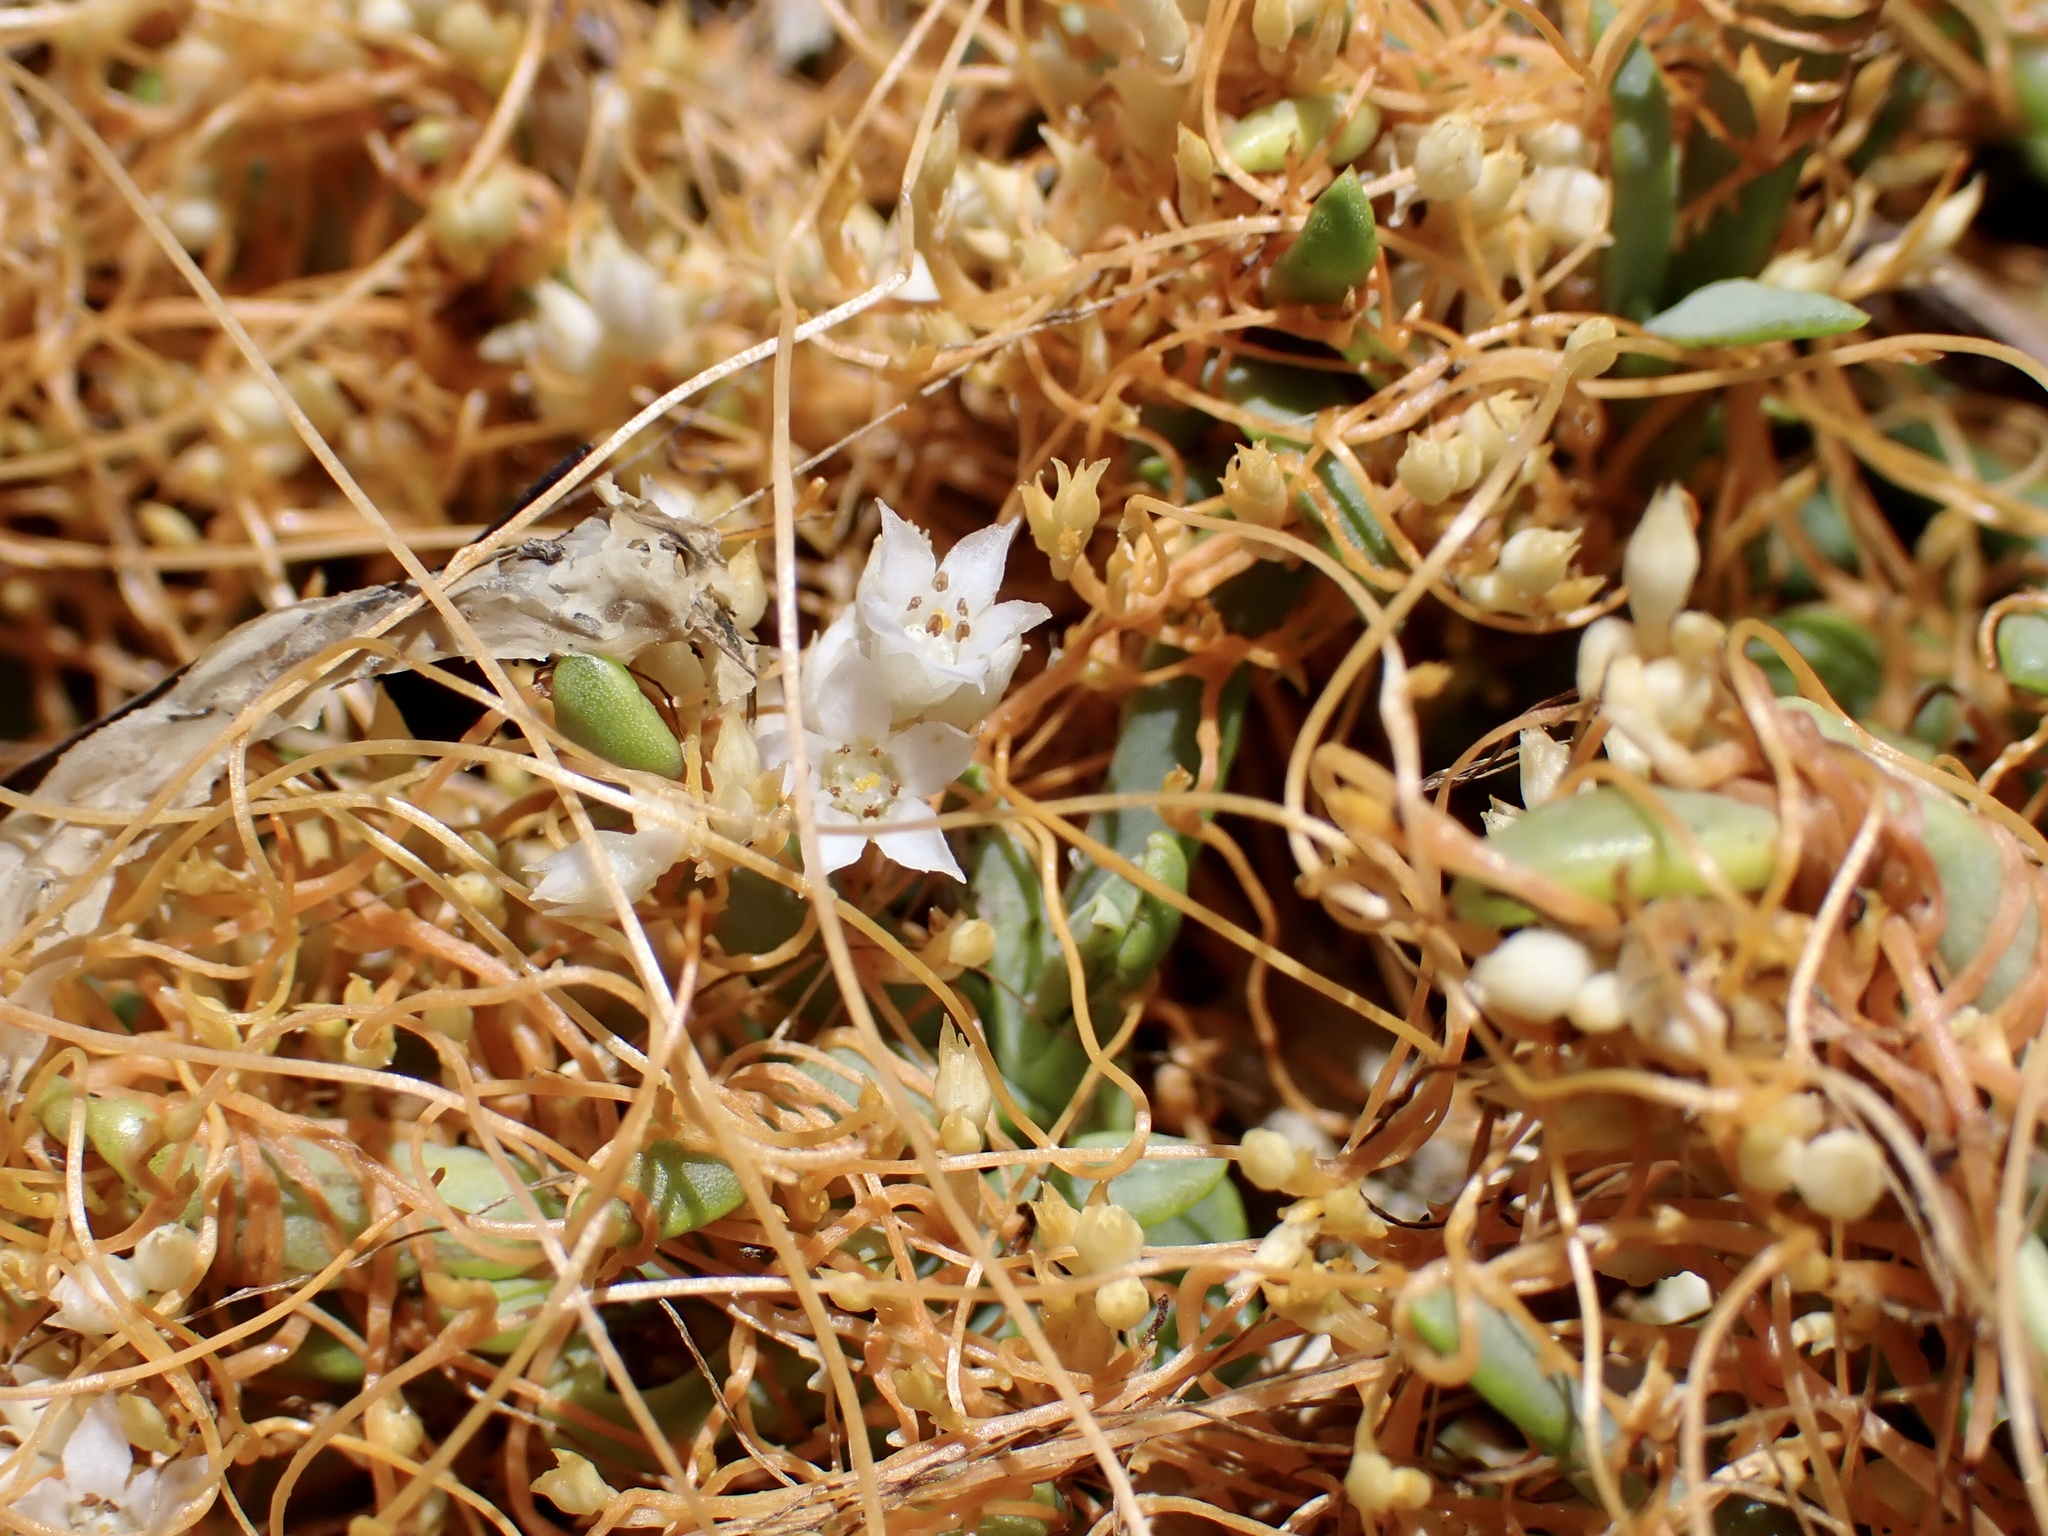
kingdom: Plantae
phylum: Tracheophyta
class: Magnoliopsida
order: Solanales
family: Convolvulaceae
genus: Cuscuta
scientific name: Cuscuta pacifica
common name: Large saltmarsh dodder
